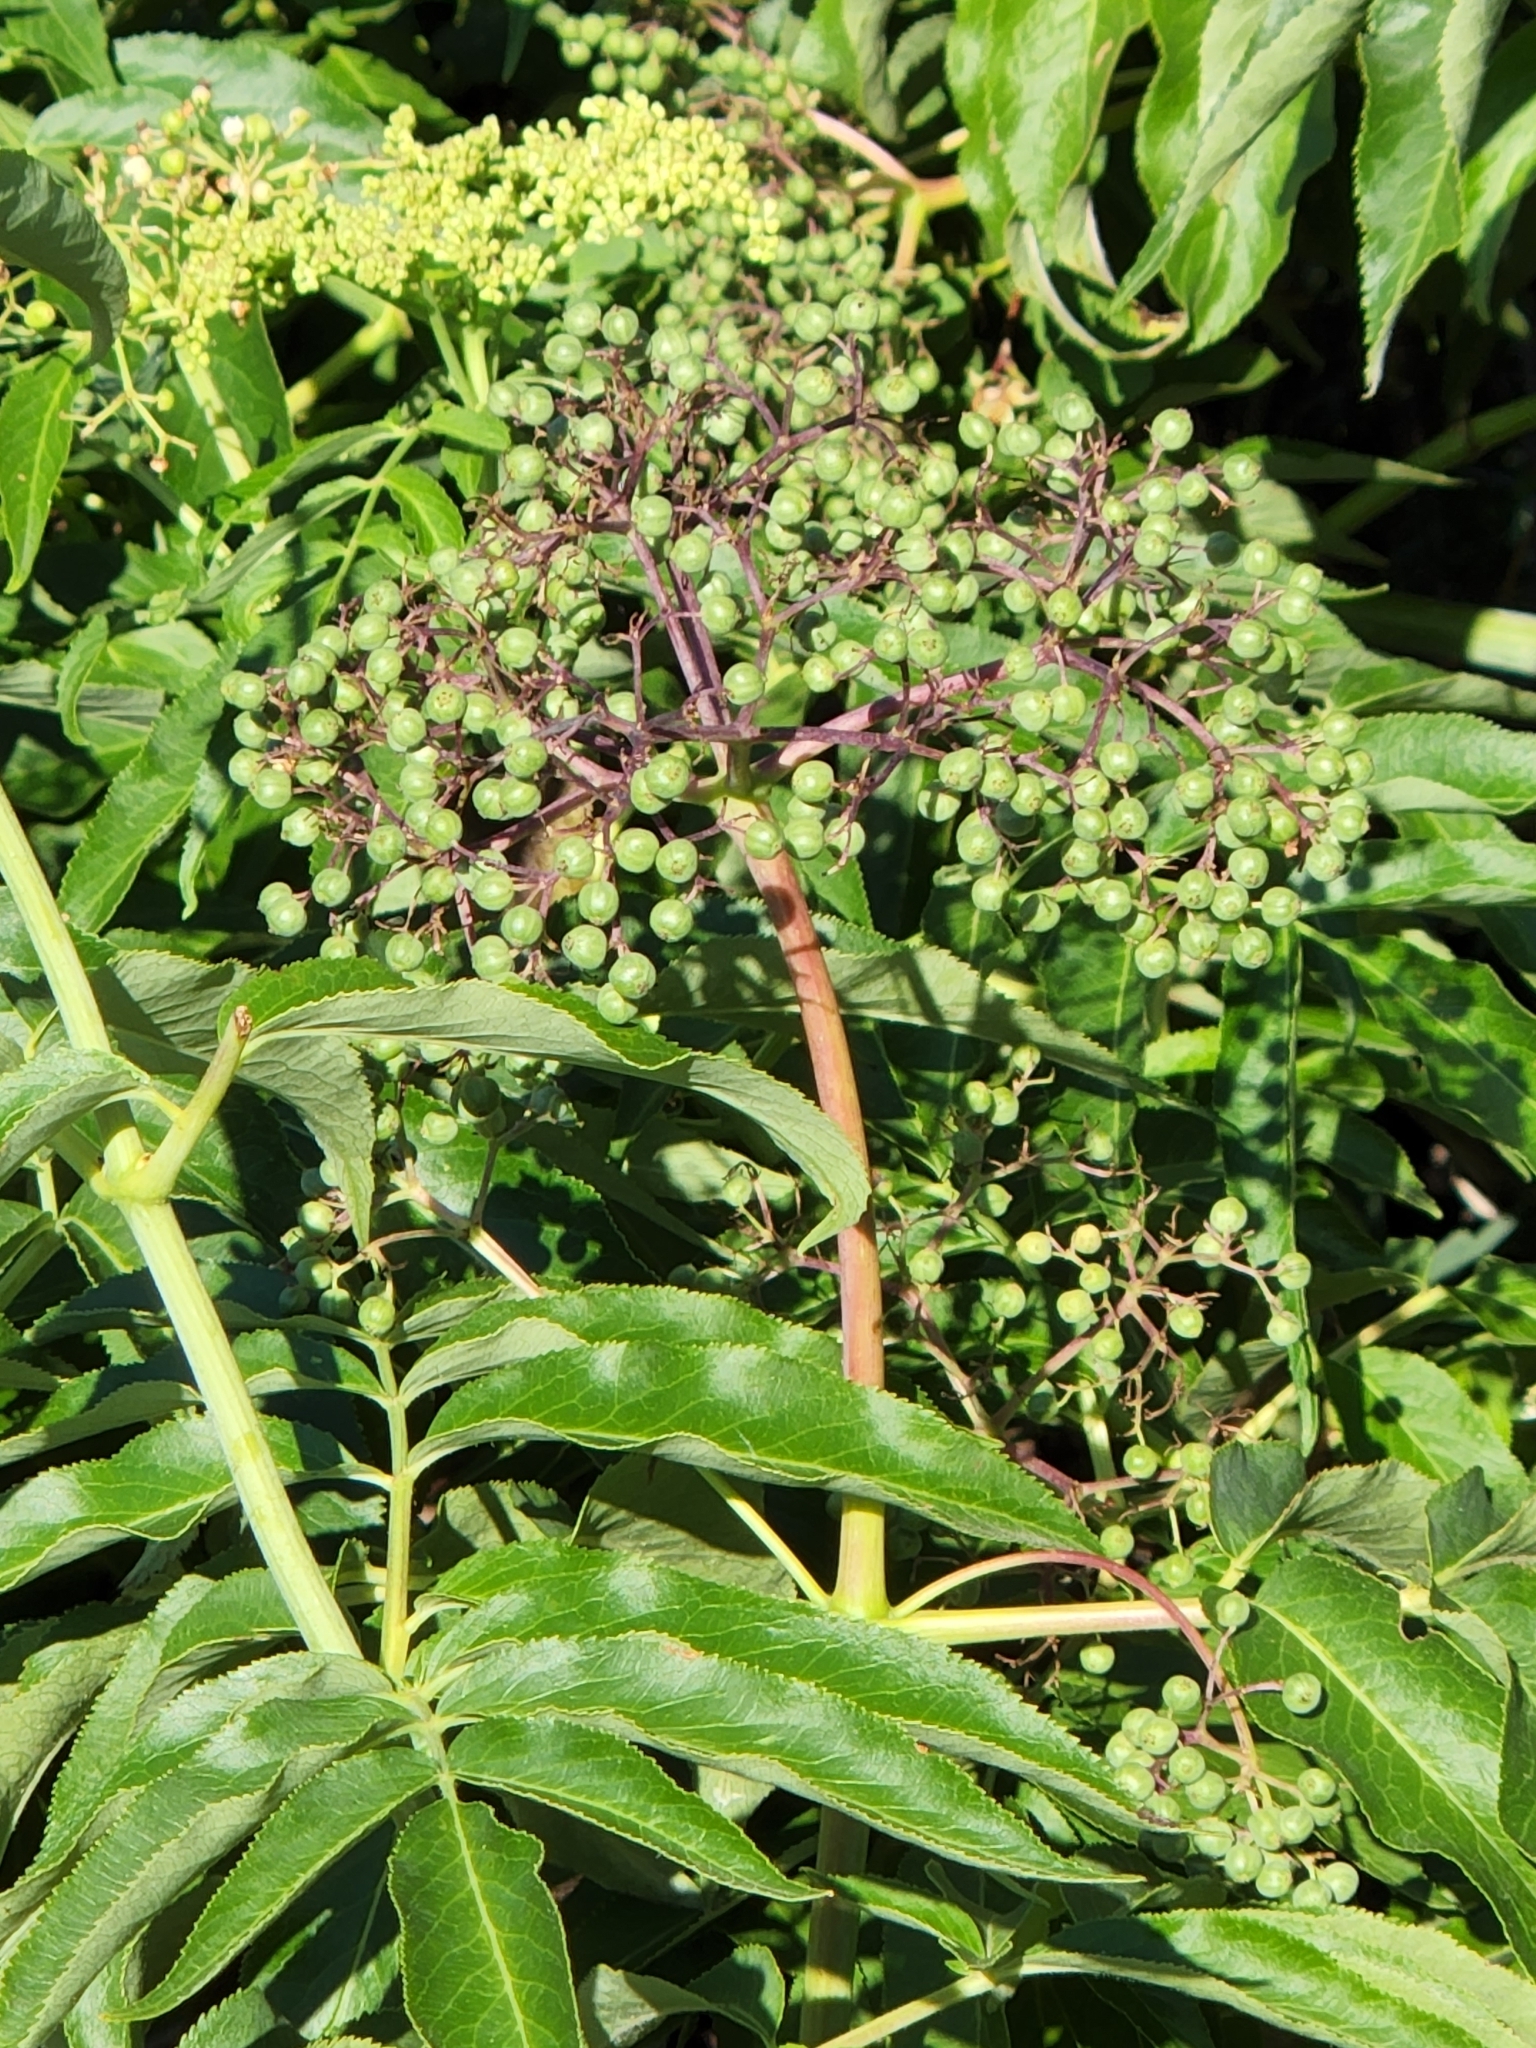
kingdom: Plantae
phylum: Tracheophyta
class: Magnoliopsida
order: Dipsacales
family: Viburnaceae
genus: Sambucus
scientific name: Sambucus cerulea
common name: Blue elder
